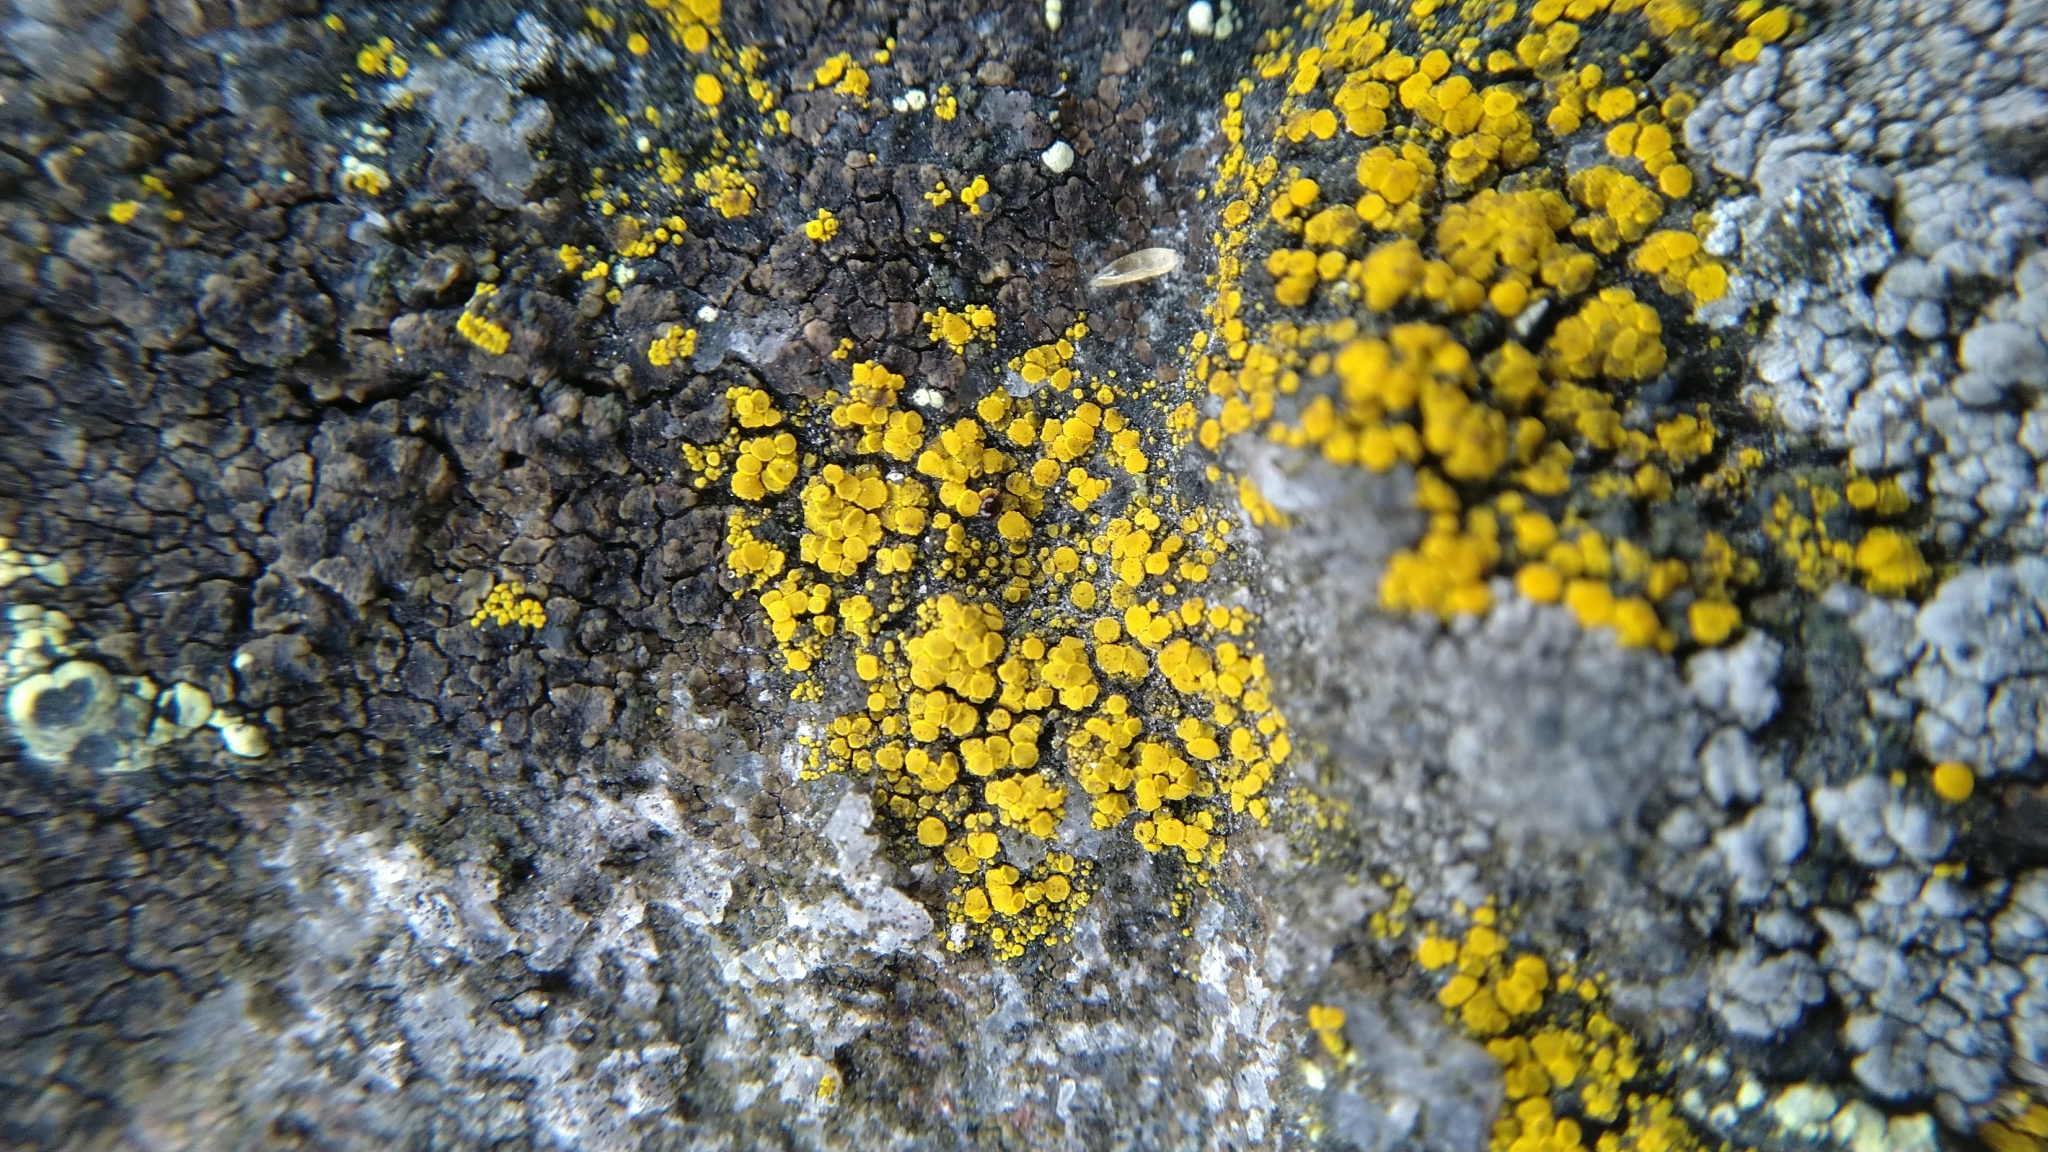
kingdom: Fungi
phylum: Ascomycota
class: Candelariomycetes
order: Candelariales
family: Candelariaceae
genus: Candelariella
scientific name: Candelariella vitellina
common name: Common goldspeck
